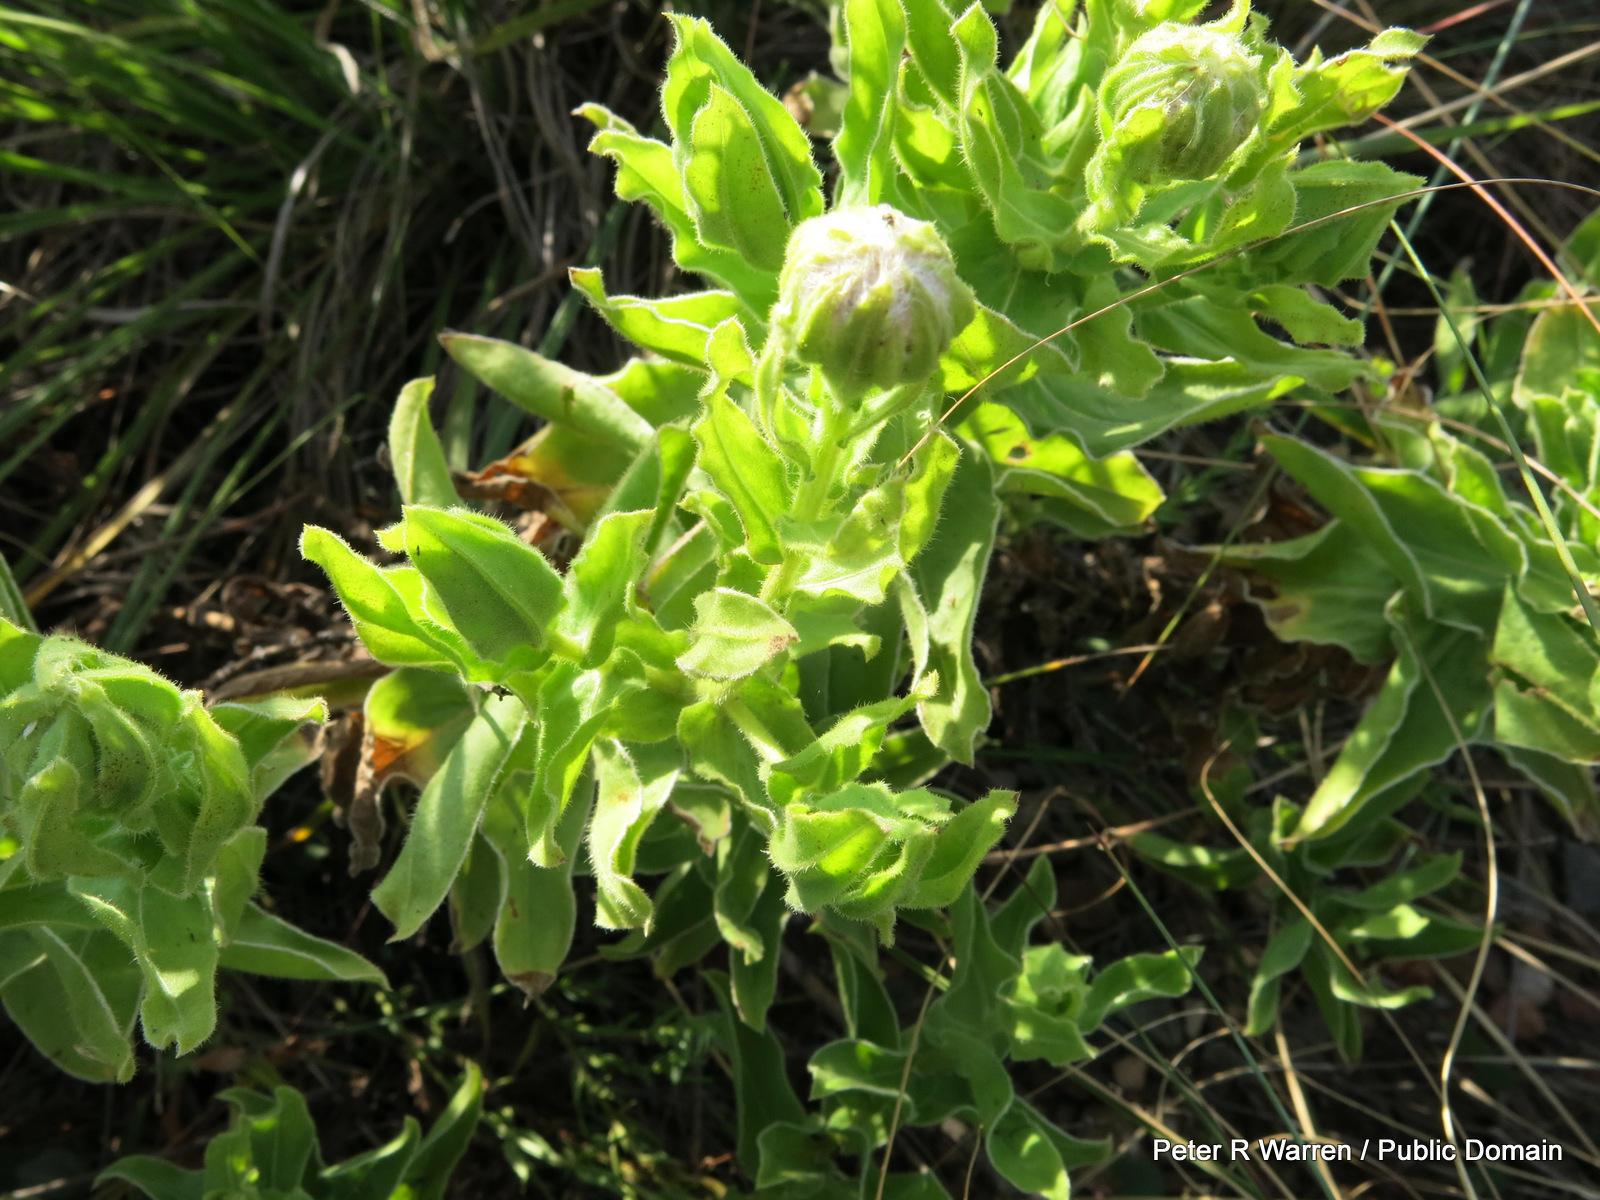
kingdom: Plantae
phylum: Tracheophyta
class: Magnoliopsida
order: Asterales
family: Asteraceae
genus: Helichrysum
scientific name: Helichrysum setosum
